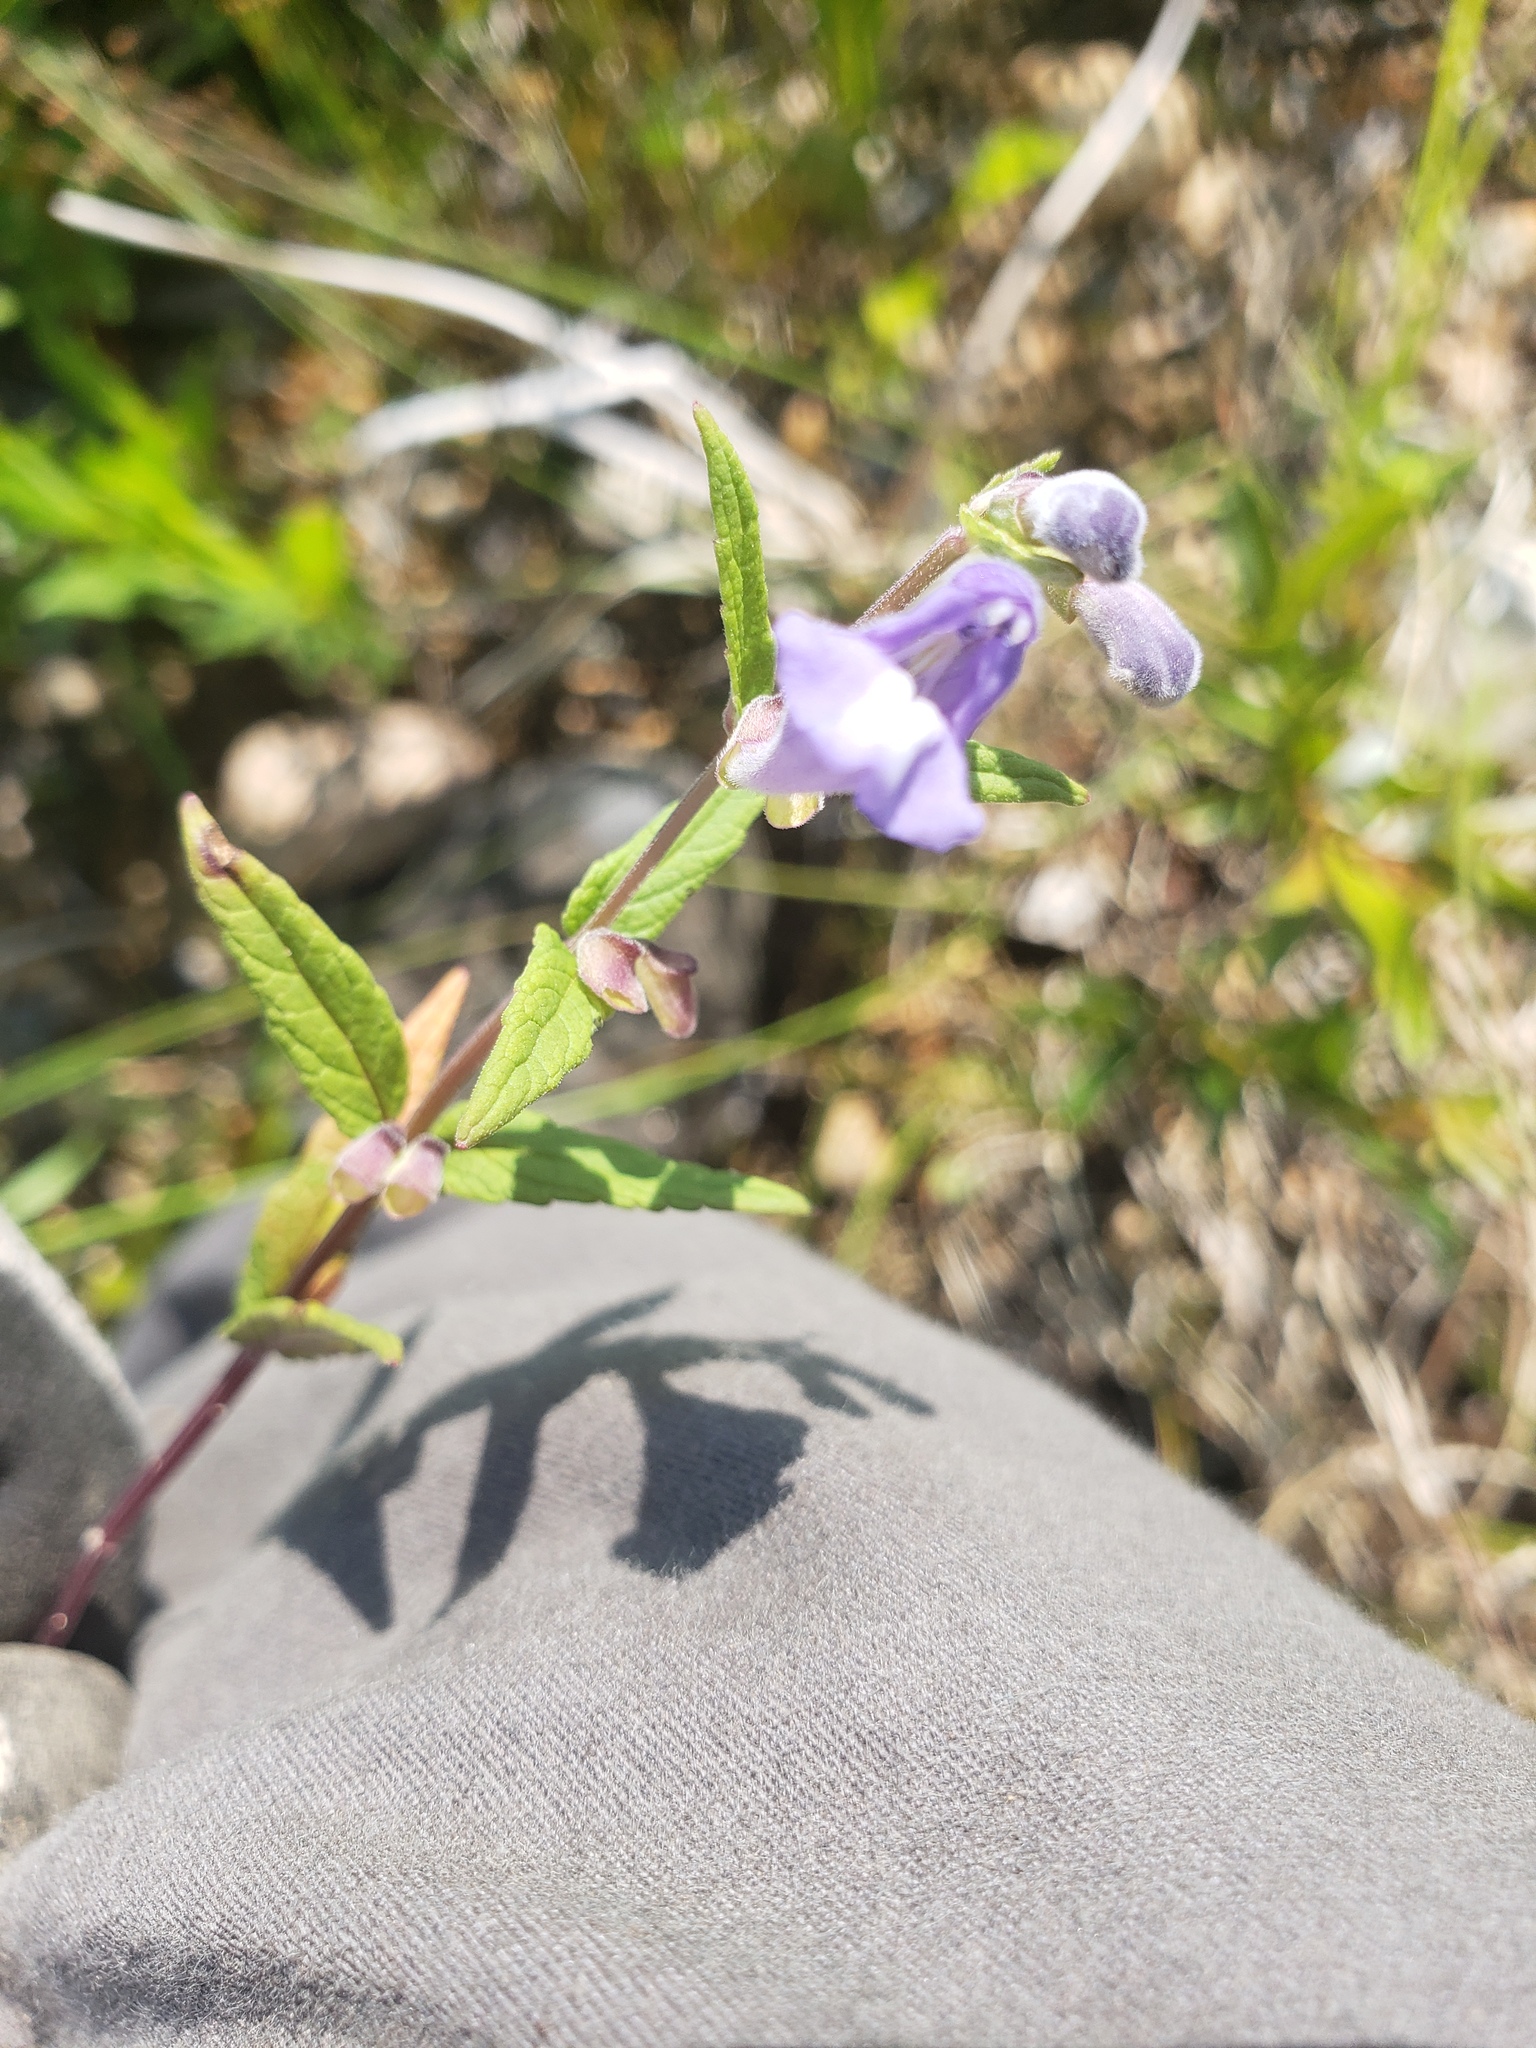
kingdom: Plantae
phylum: Tracheophyta
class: Magnoliopsida
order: Lamiales
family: Lamiaceae
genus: Scutellaria
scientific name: Scutellaria galericulata
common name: Skullcap
